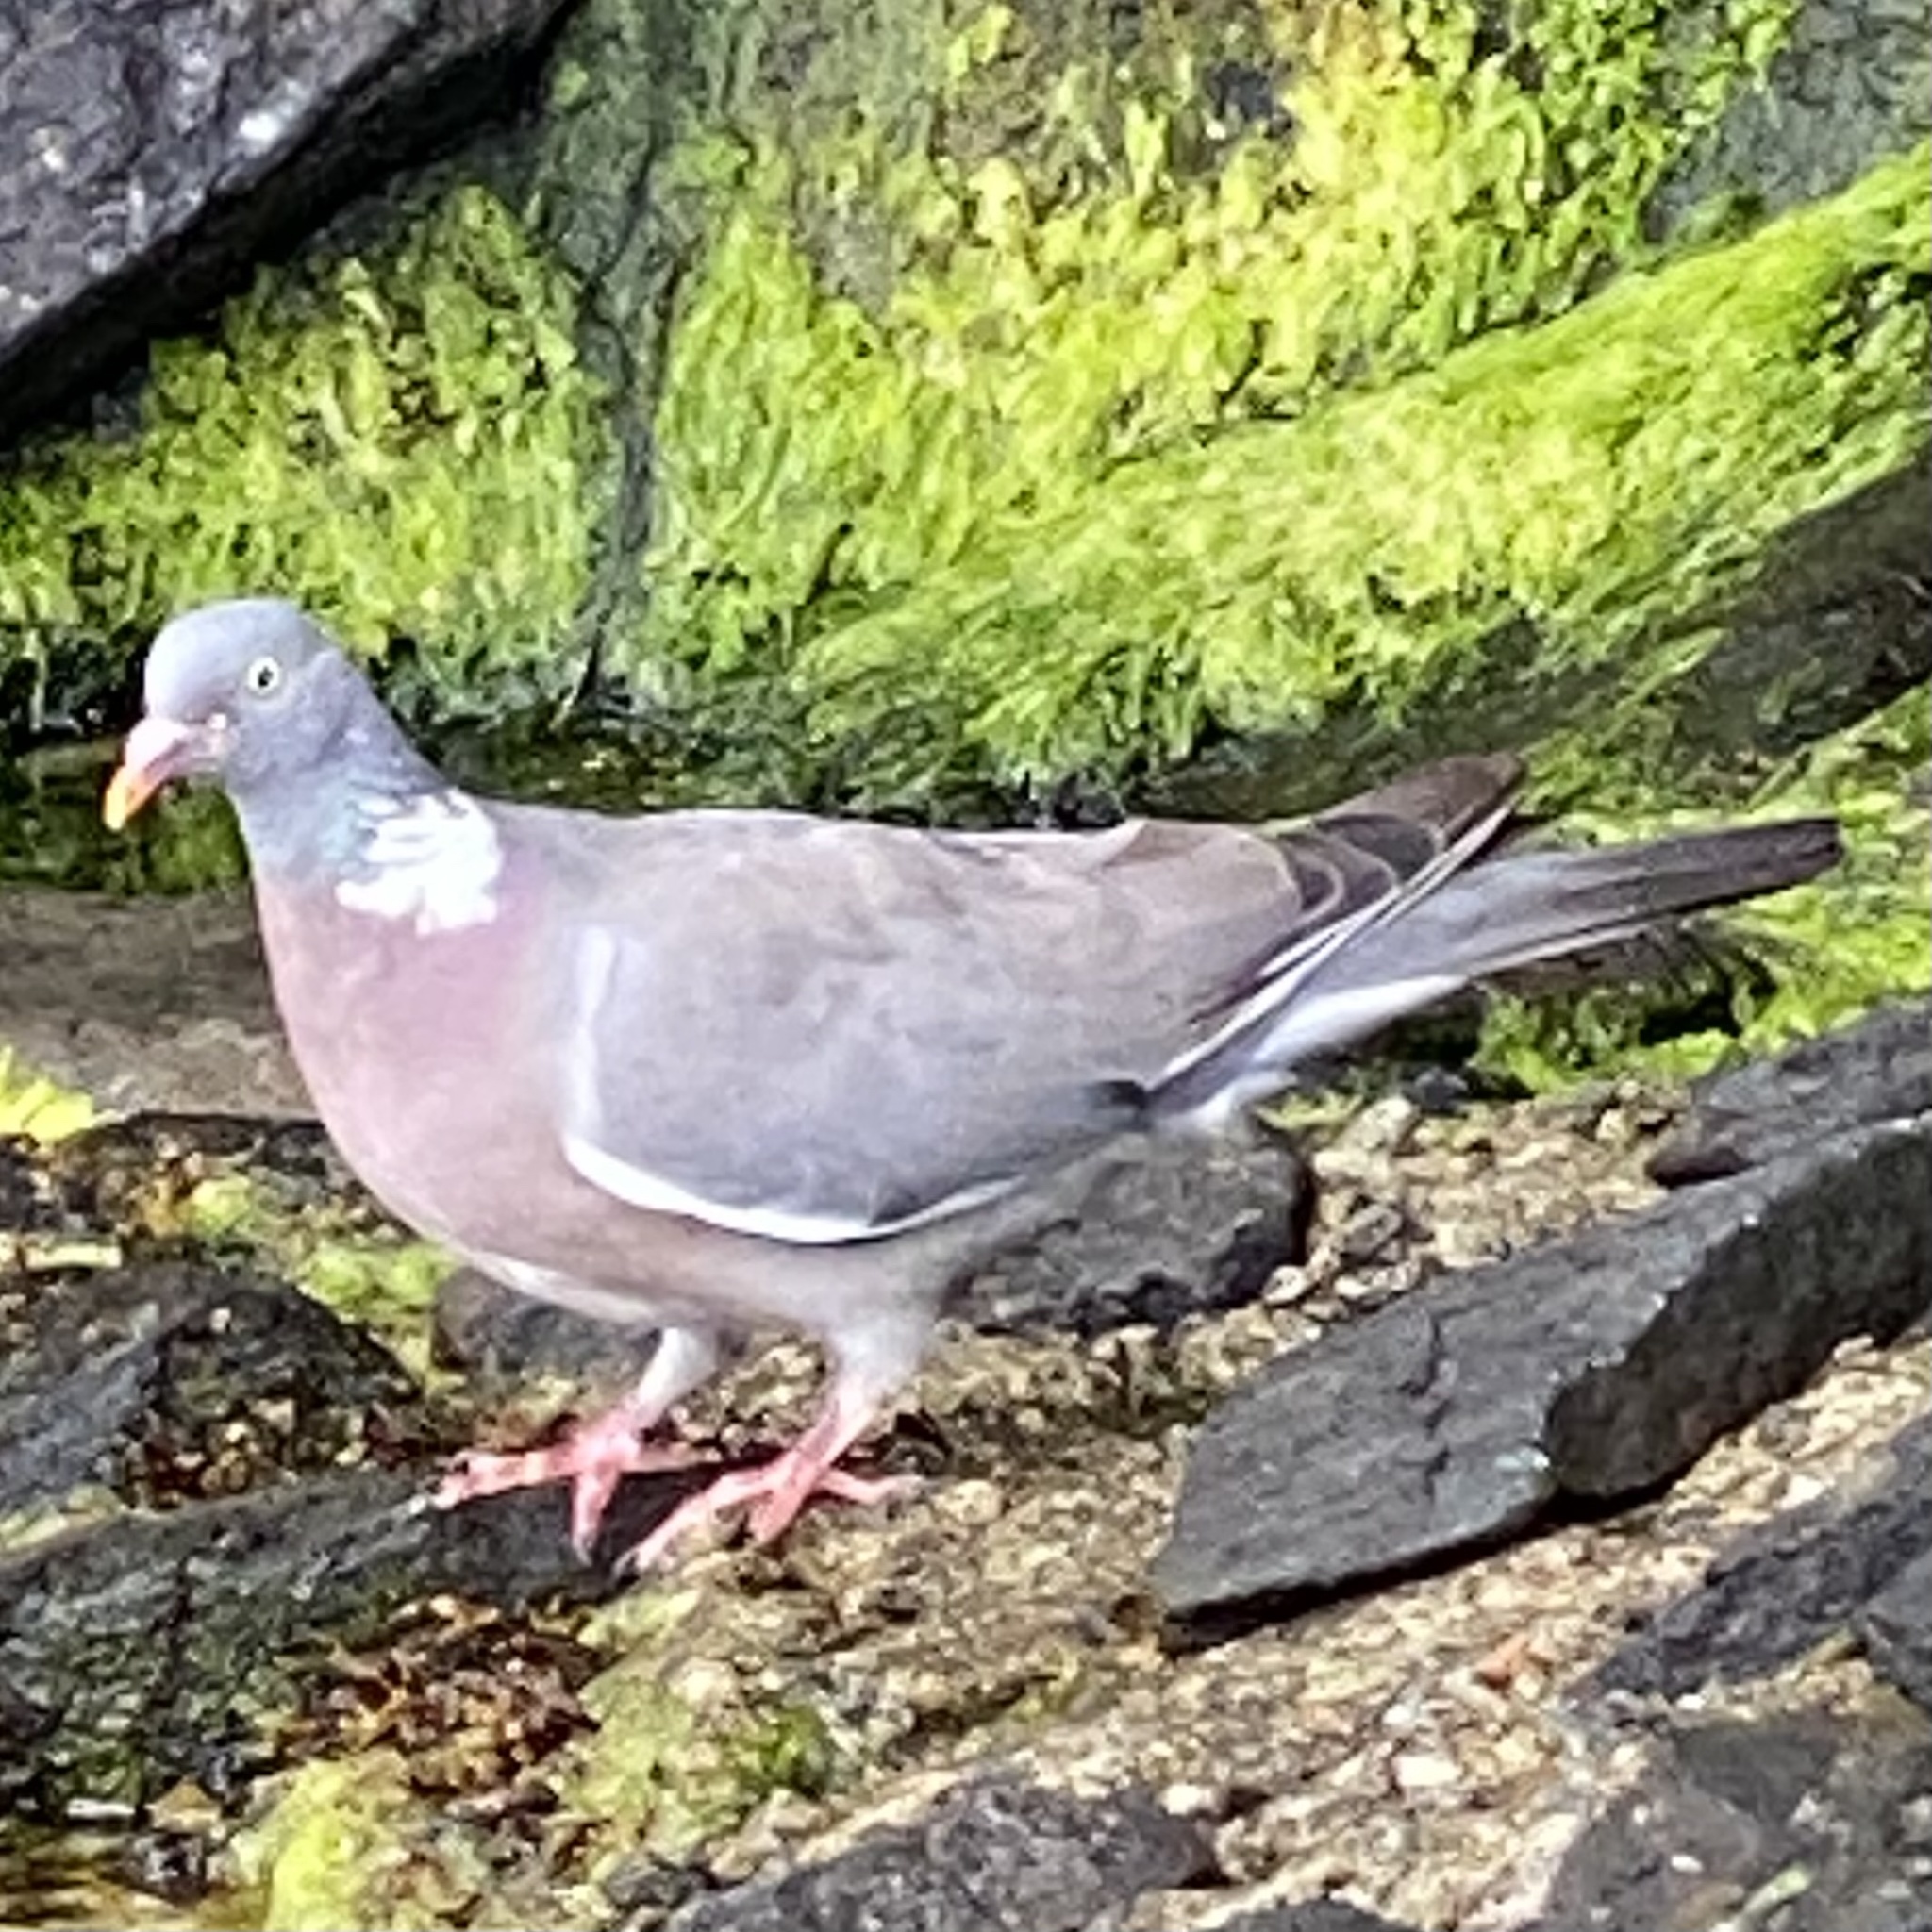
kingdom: Animalia
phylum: Chordata
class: Aves
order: Columbiformes
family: Columbidae
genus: Columba
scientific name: Columba palumbus
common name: Common wood pigeon
